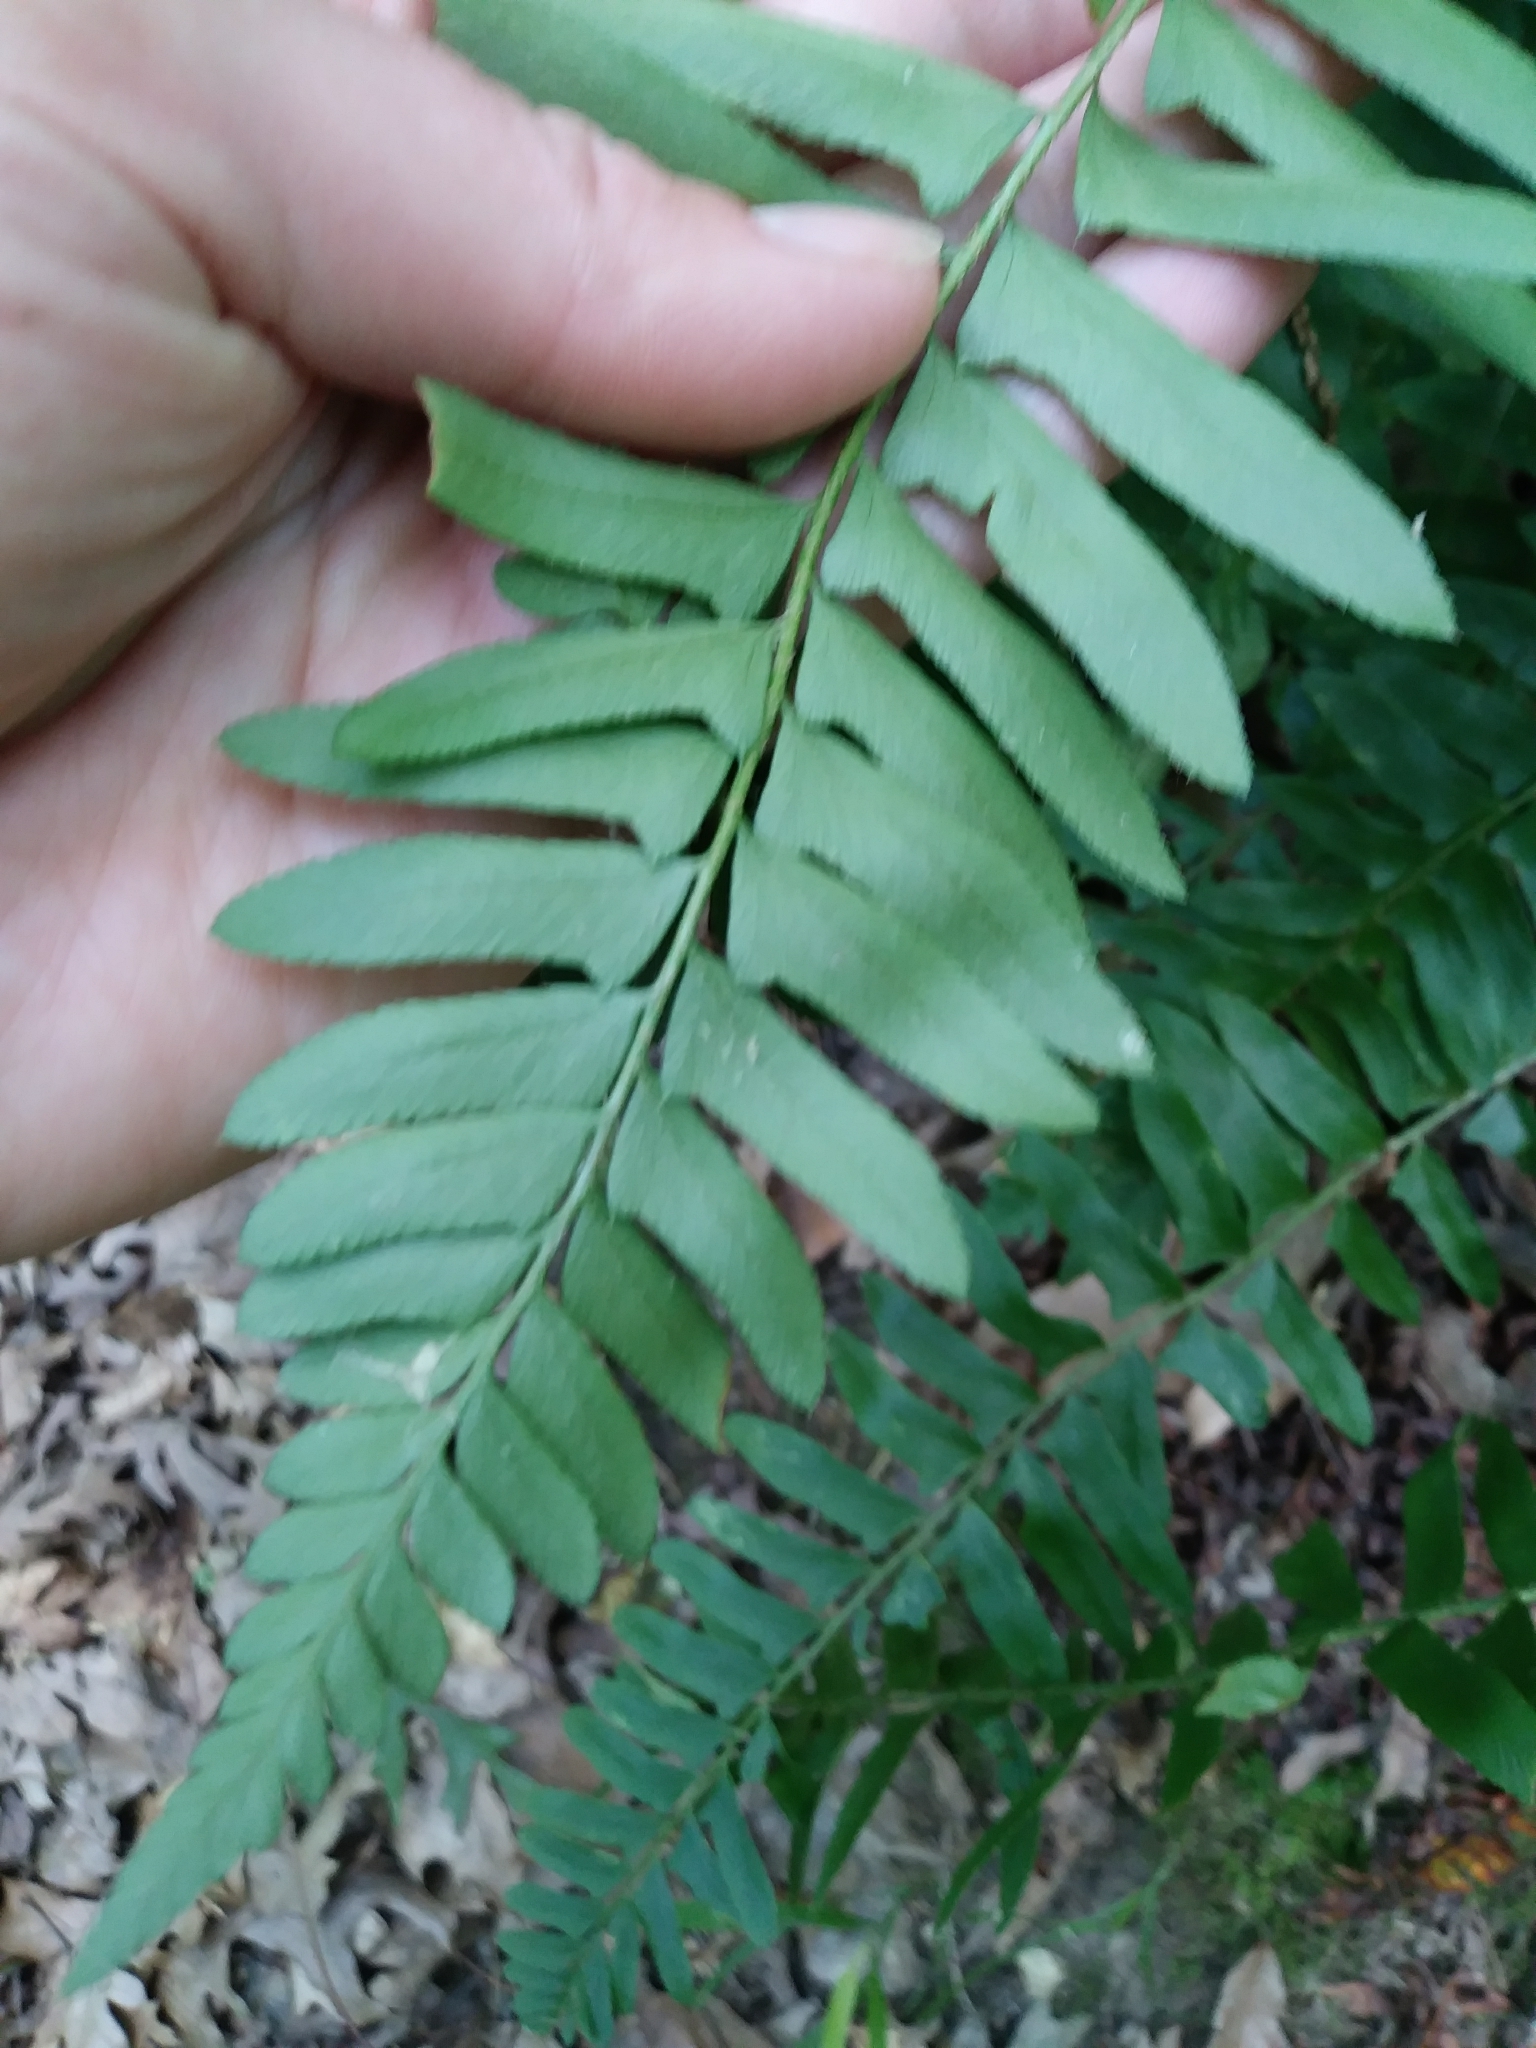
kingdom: Plantae
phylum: Tracheophyta
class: Polypodiopsida
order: Polypodiales
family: Dryopteridaceae
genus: Polystichum
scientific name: Polystichum acrostichoides
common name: Christmas fern
